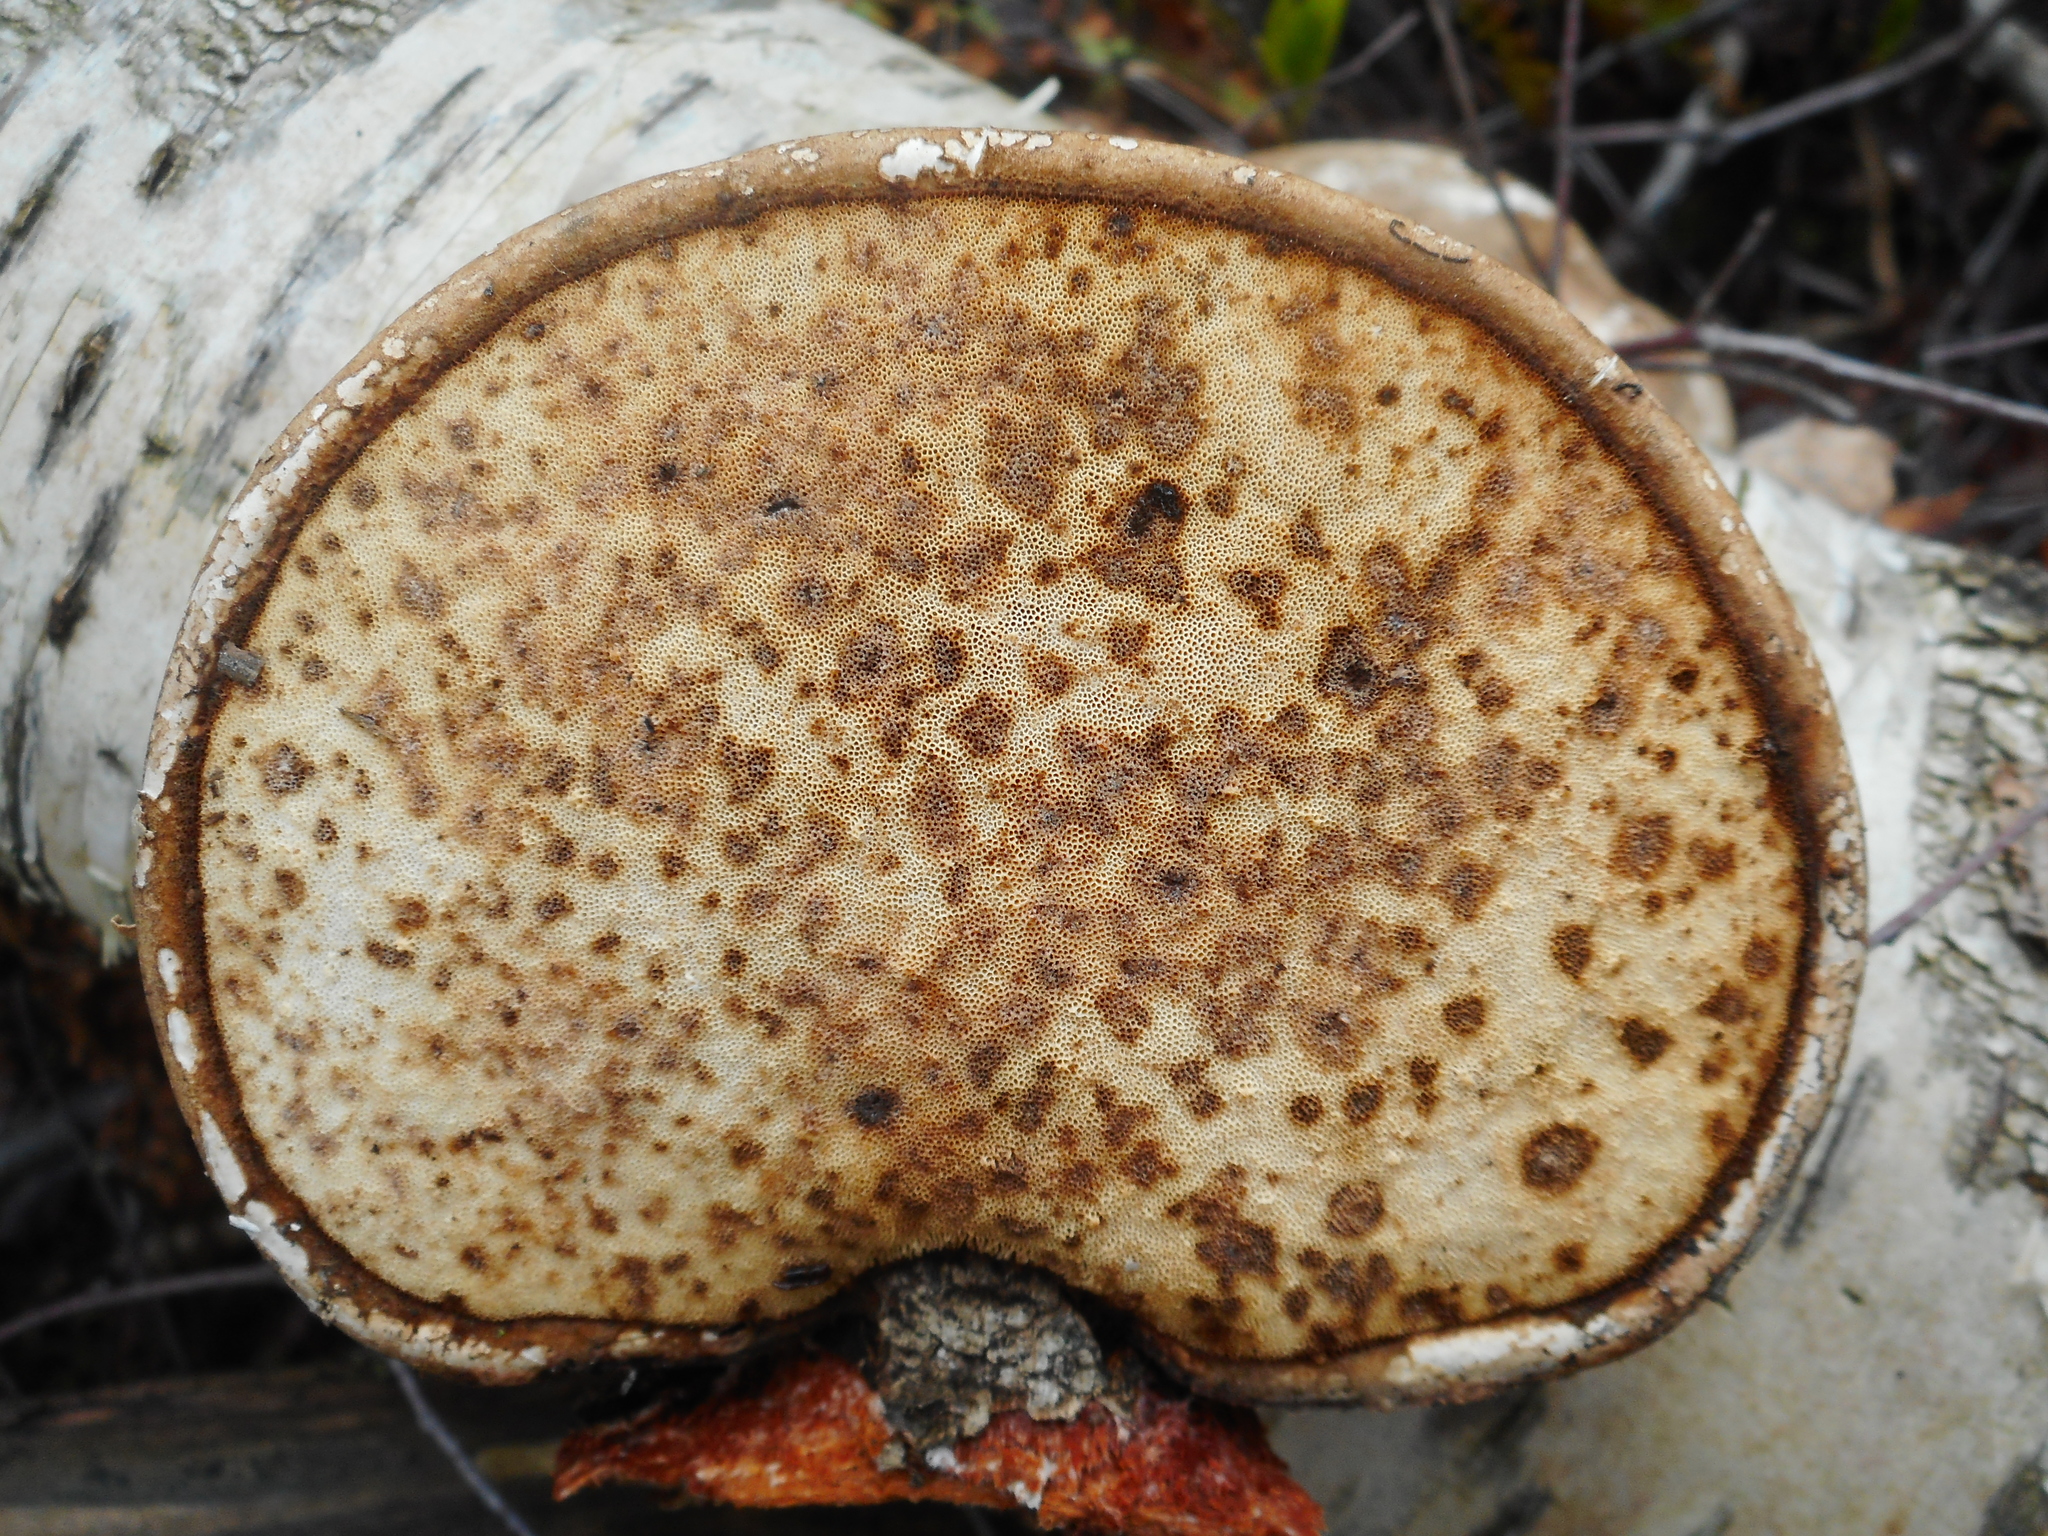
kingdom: Fungi
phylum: Basidiomycota
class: Agaricomycetes
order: Polyporales
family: Fomitopsidaceae
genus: Fomitopsis
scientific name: Fomitopsis betulina
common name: Birch polypore
